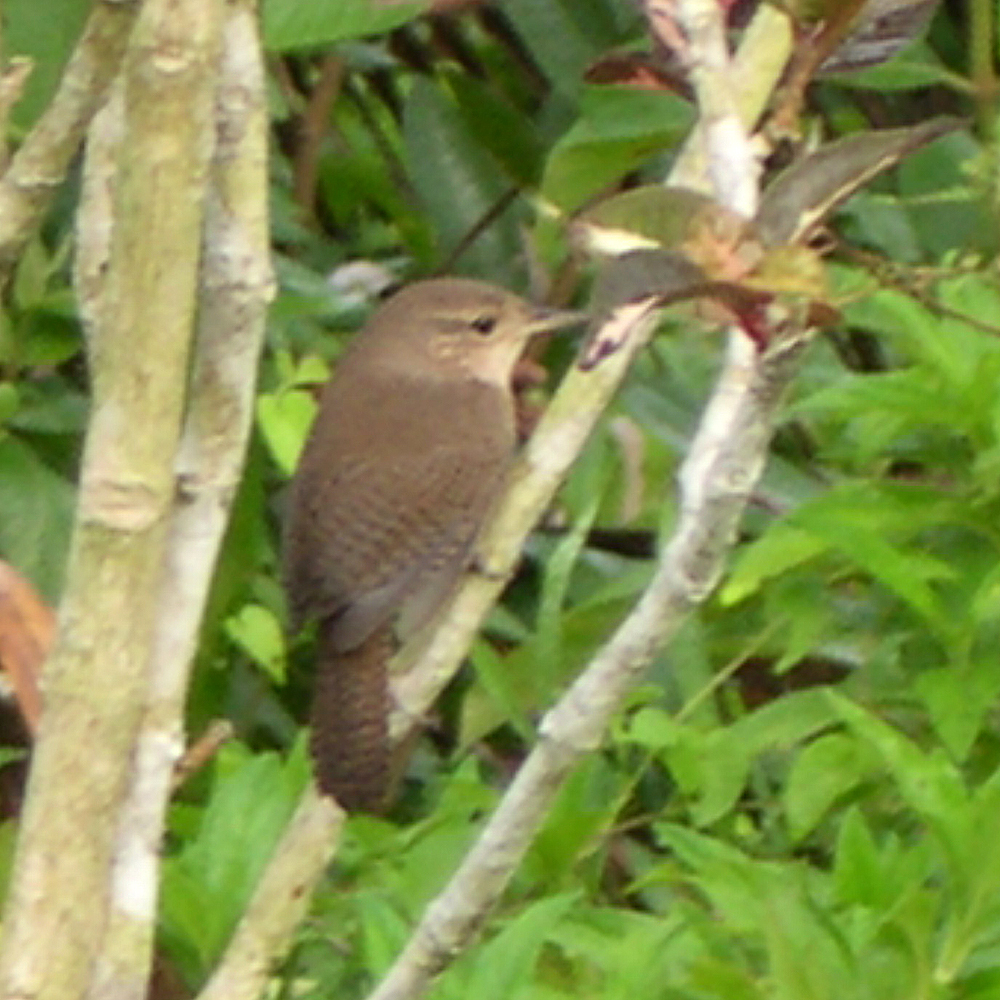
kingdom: Animalia
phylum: Chordata
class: Aves
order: Passeriformes
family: Troglodytidae
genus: Troglodytes
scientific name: Troglodytes aedon
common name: House wren
